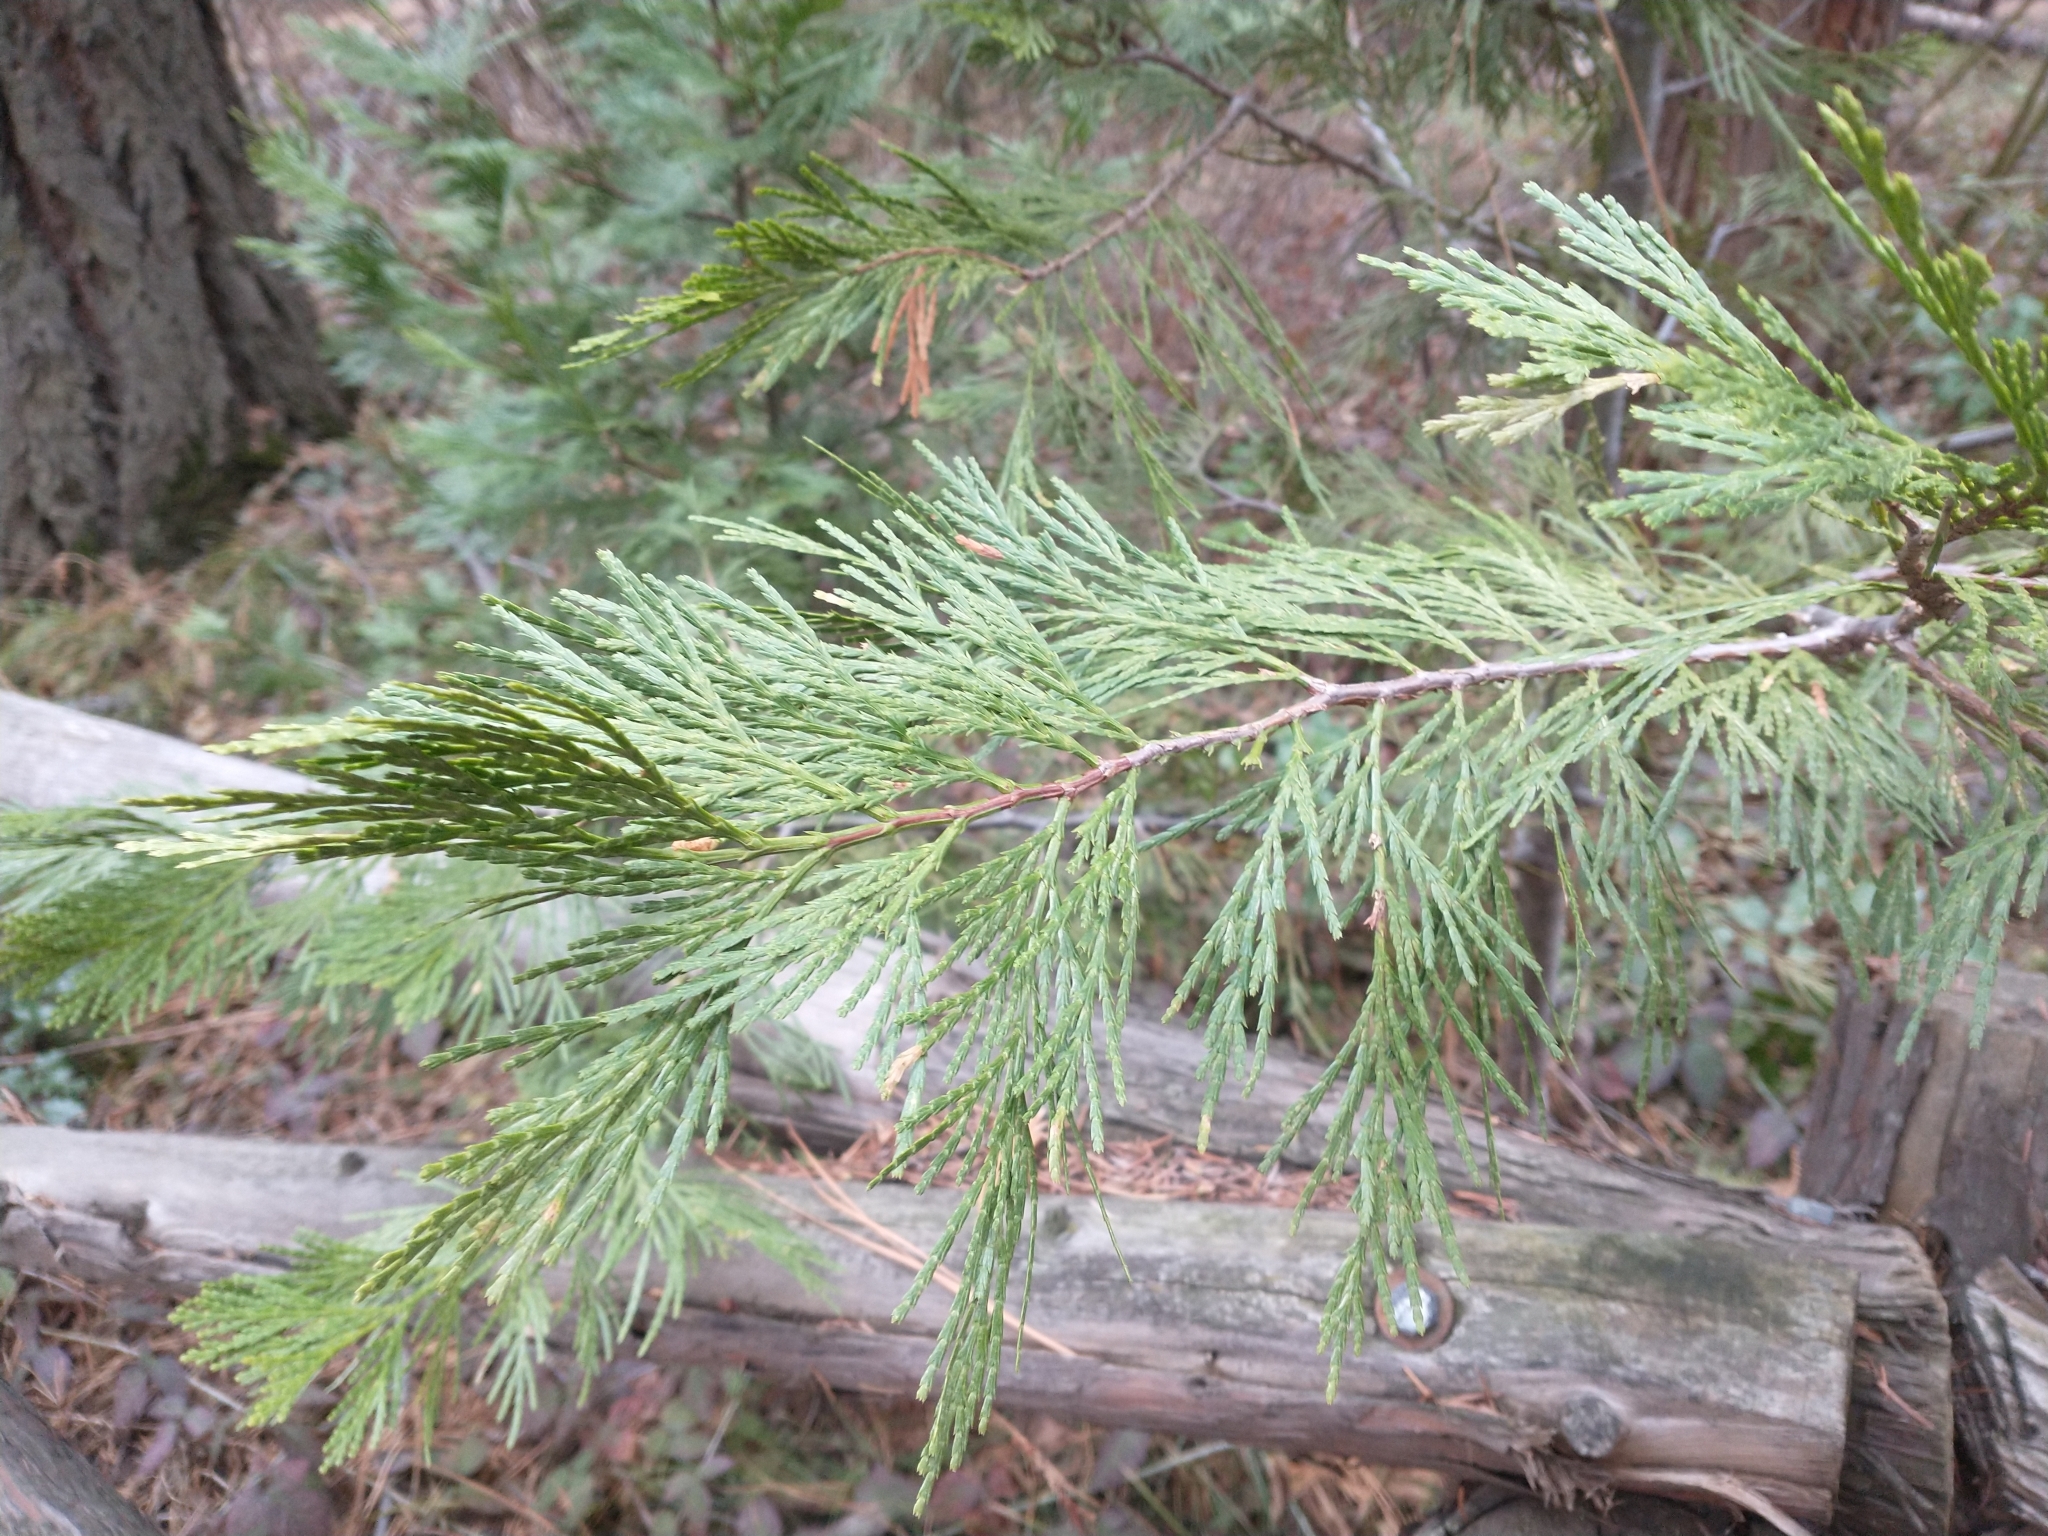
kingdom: Plantae
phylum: Tracheophyta
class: Pinopsida
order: Pinales
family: Cupressaceae
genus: Calocedrus
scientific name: Calocedrus decurrens
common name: Californian incense-cedar
